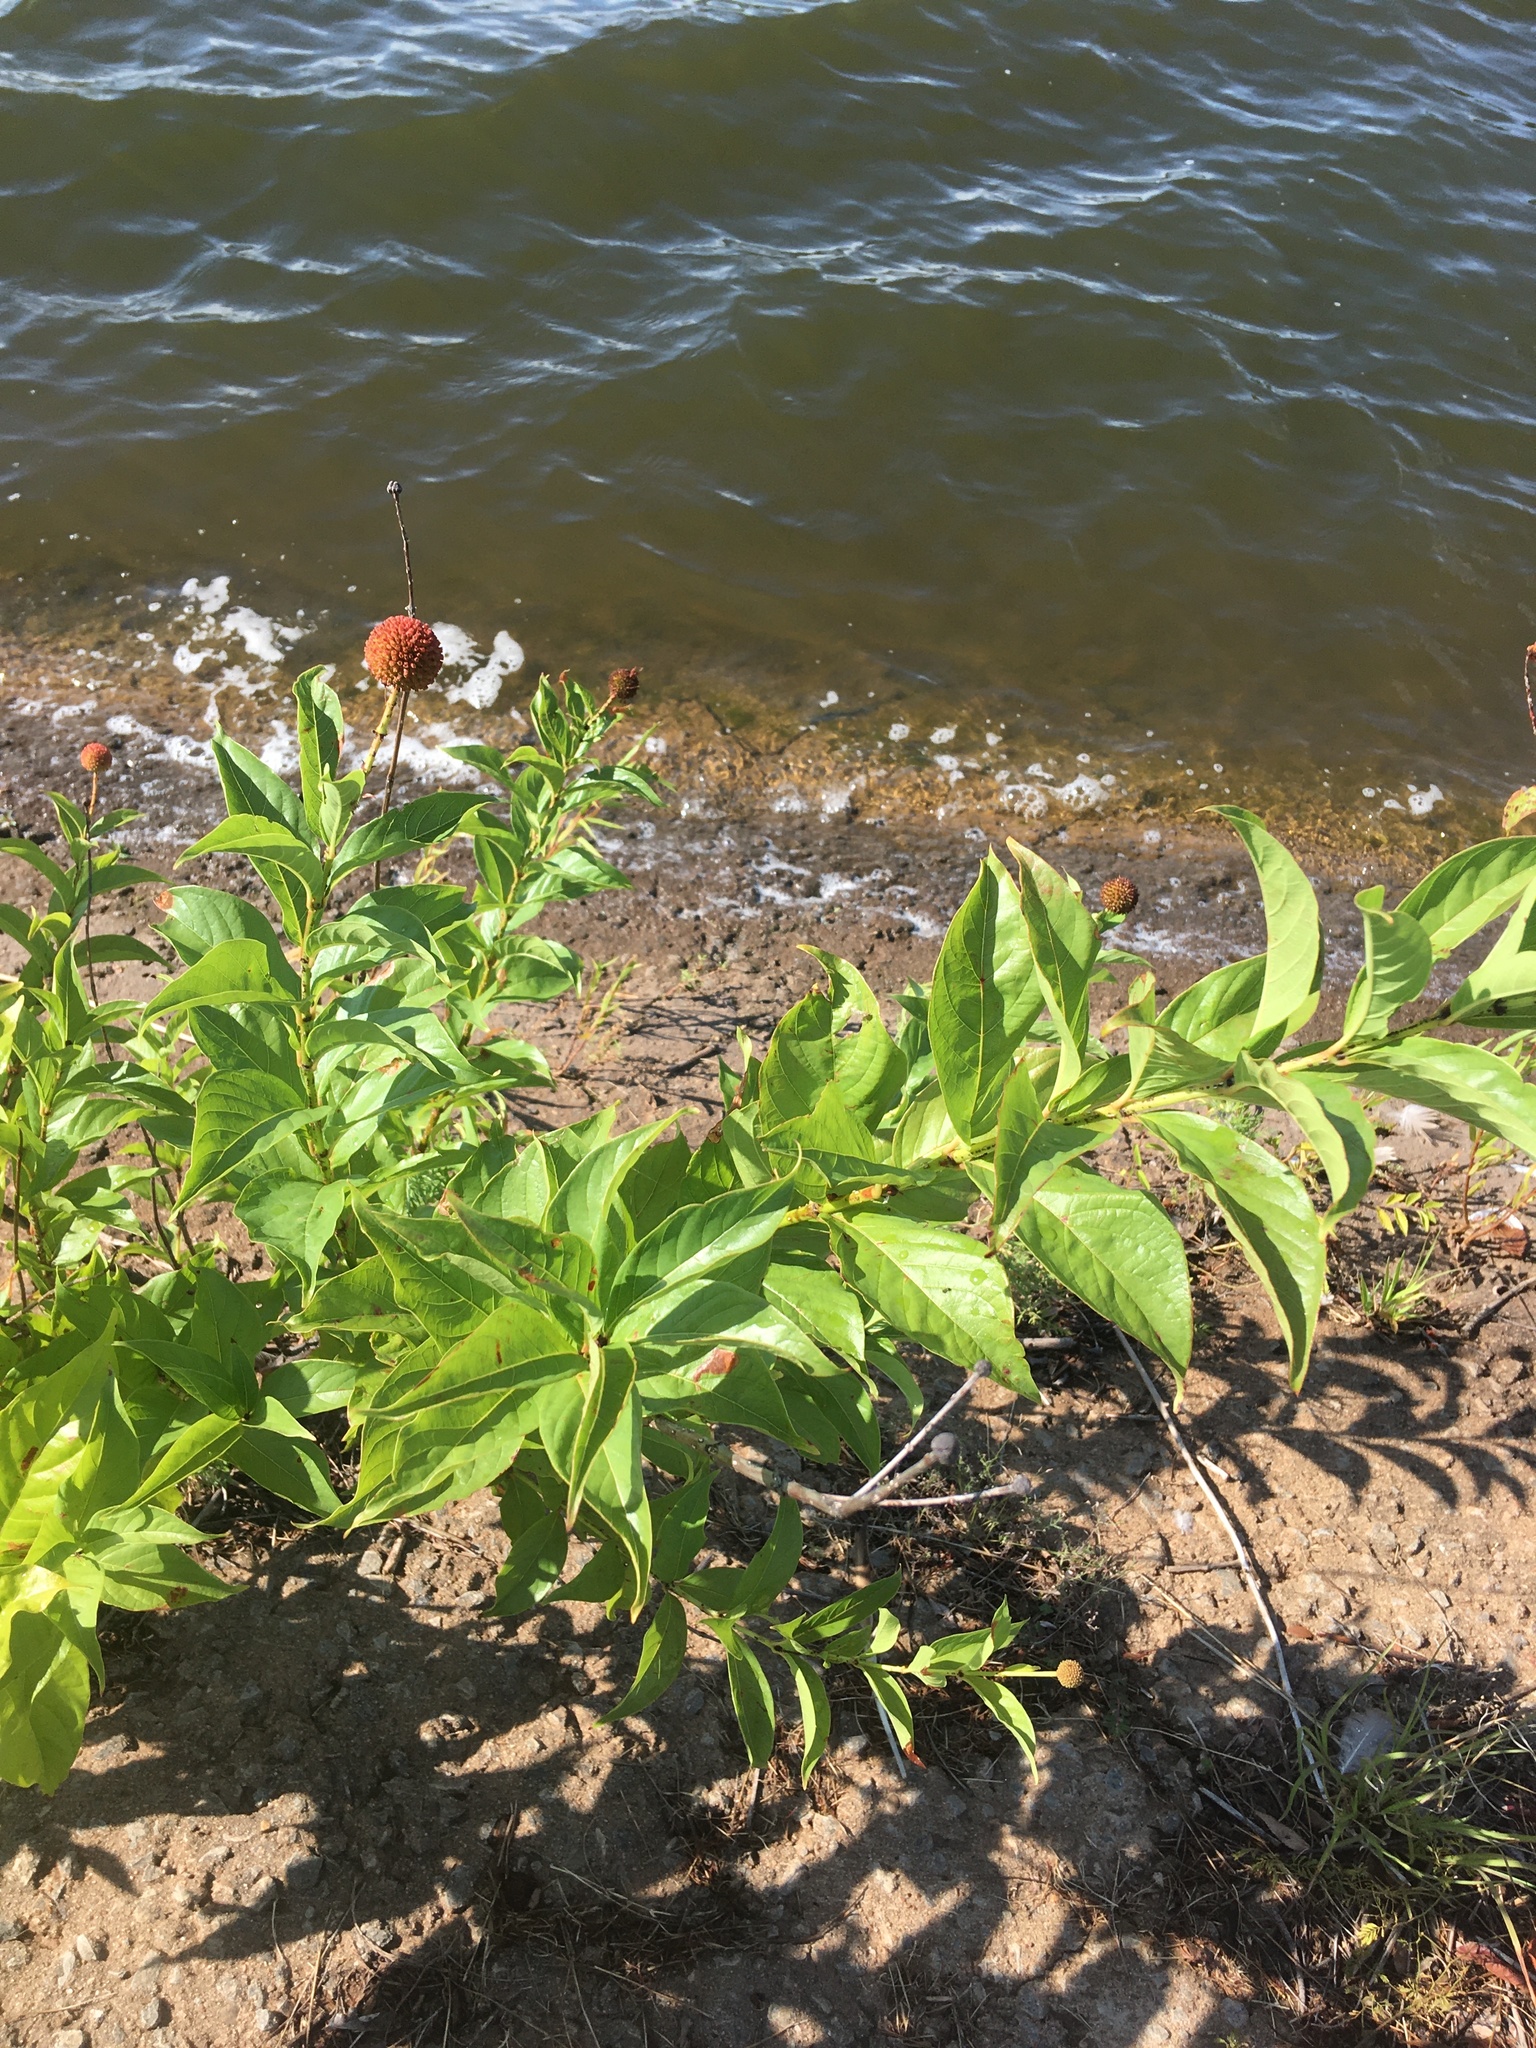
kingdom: Plantae
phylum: Tracheophyta
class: Magnoliopsida
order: Gentianales
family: Rubiaceae
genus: Cephalanthus
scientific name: Cephalanthus occidentalis
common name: Button-willow
